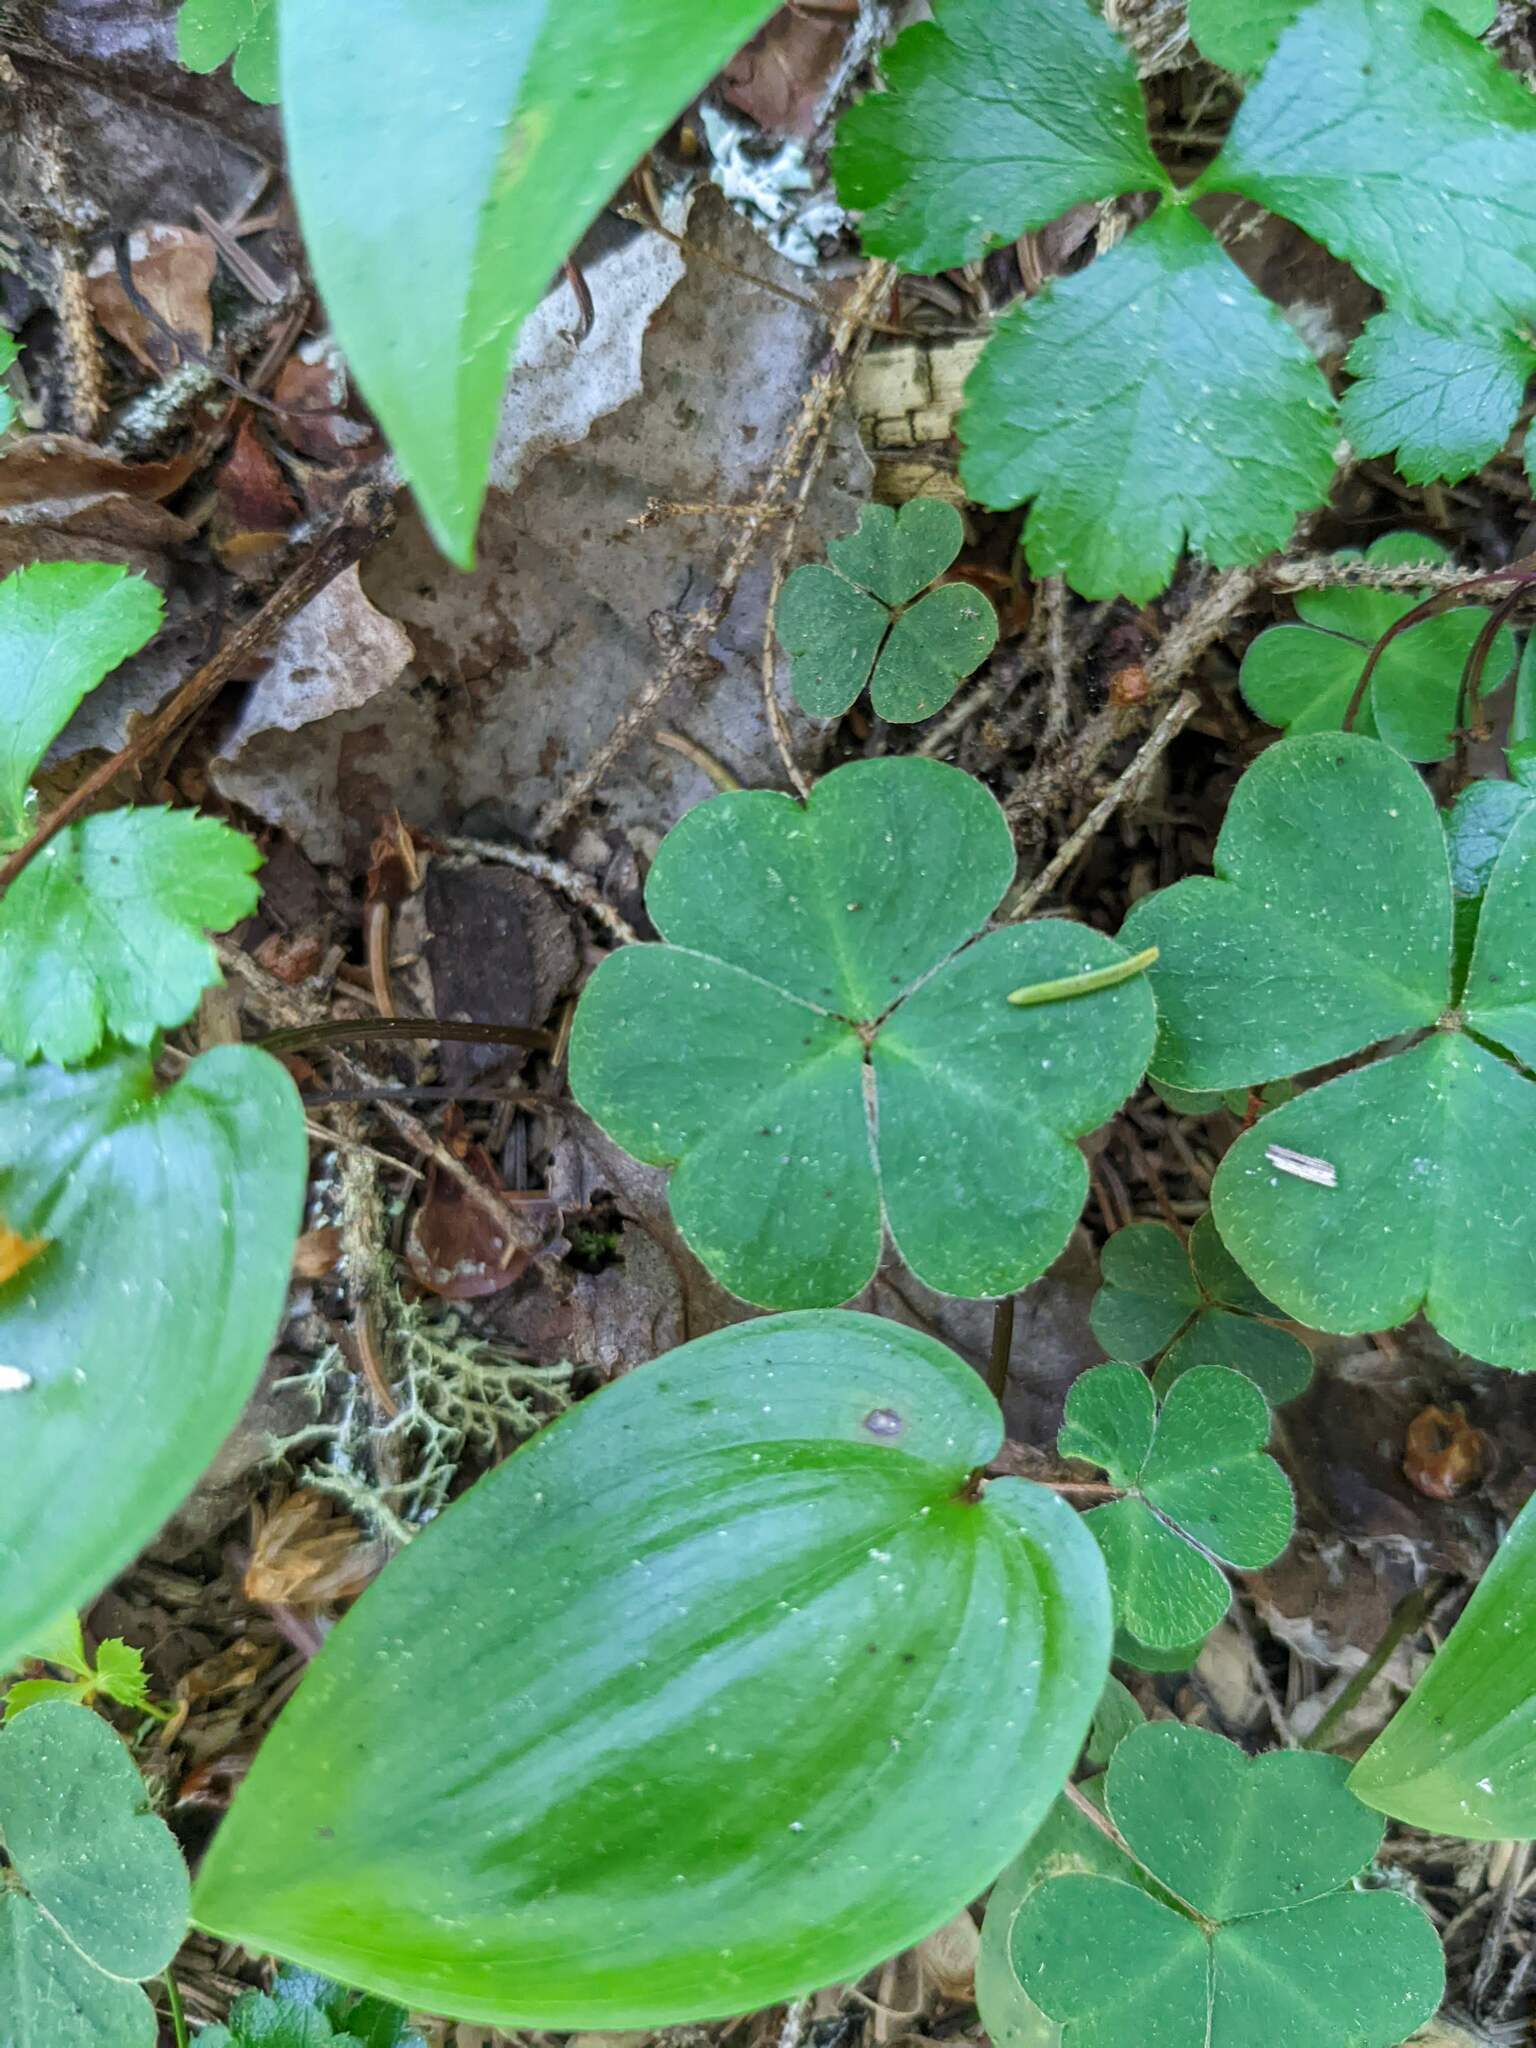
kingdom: Plantae
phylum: Tracheophyta
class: Magnoliopsida
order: Oxalidales
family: Oxalidaceae
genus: Oxalis
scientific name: Oxalis montana
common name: American wood-sorrel
